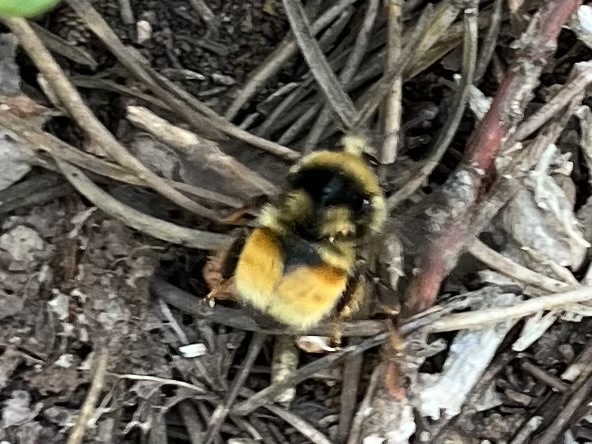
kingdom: Animalia
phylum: Arthropoda
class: Insecta
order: Hymenoptera
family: Apidae
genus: Bombus
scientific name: Bombus bifarius
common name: Two form bumble bee
